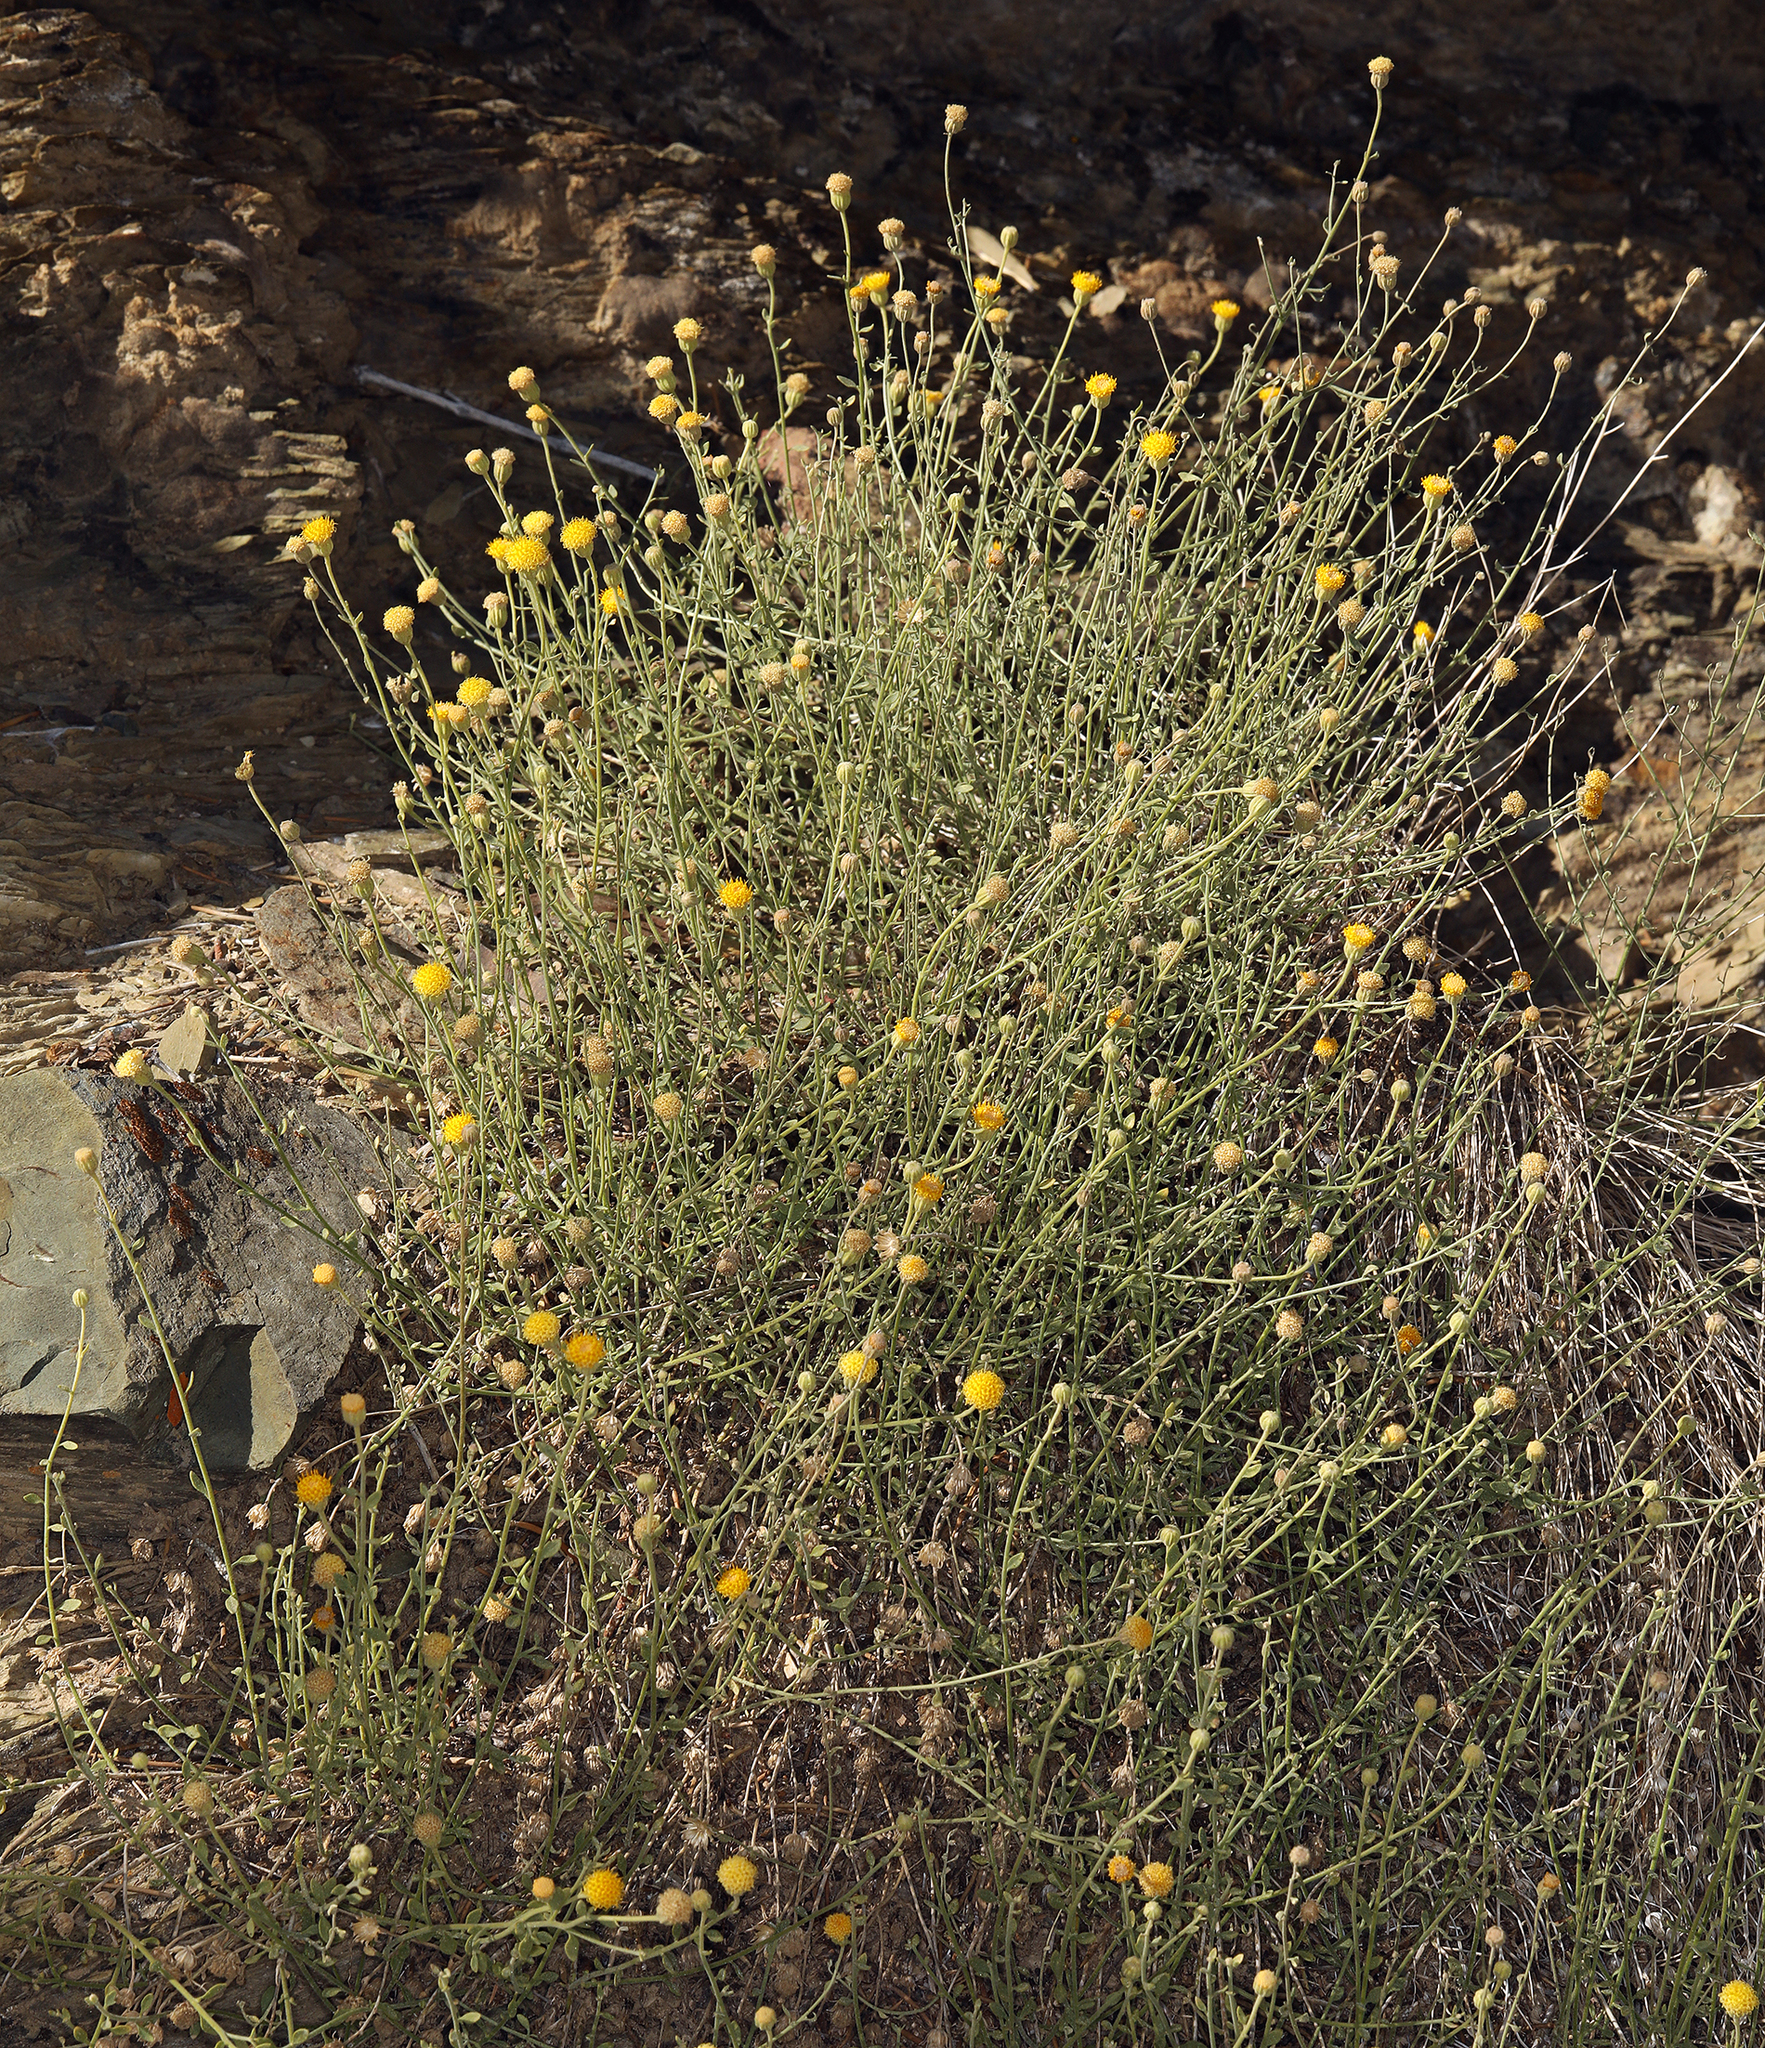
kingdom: Plantae
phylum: Tracheophyta
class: Magnoliopsida
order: Asterales
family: Asteraceae
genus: Laphamia
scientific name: Laphamia megalocephala
